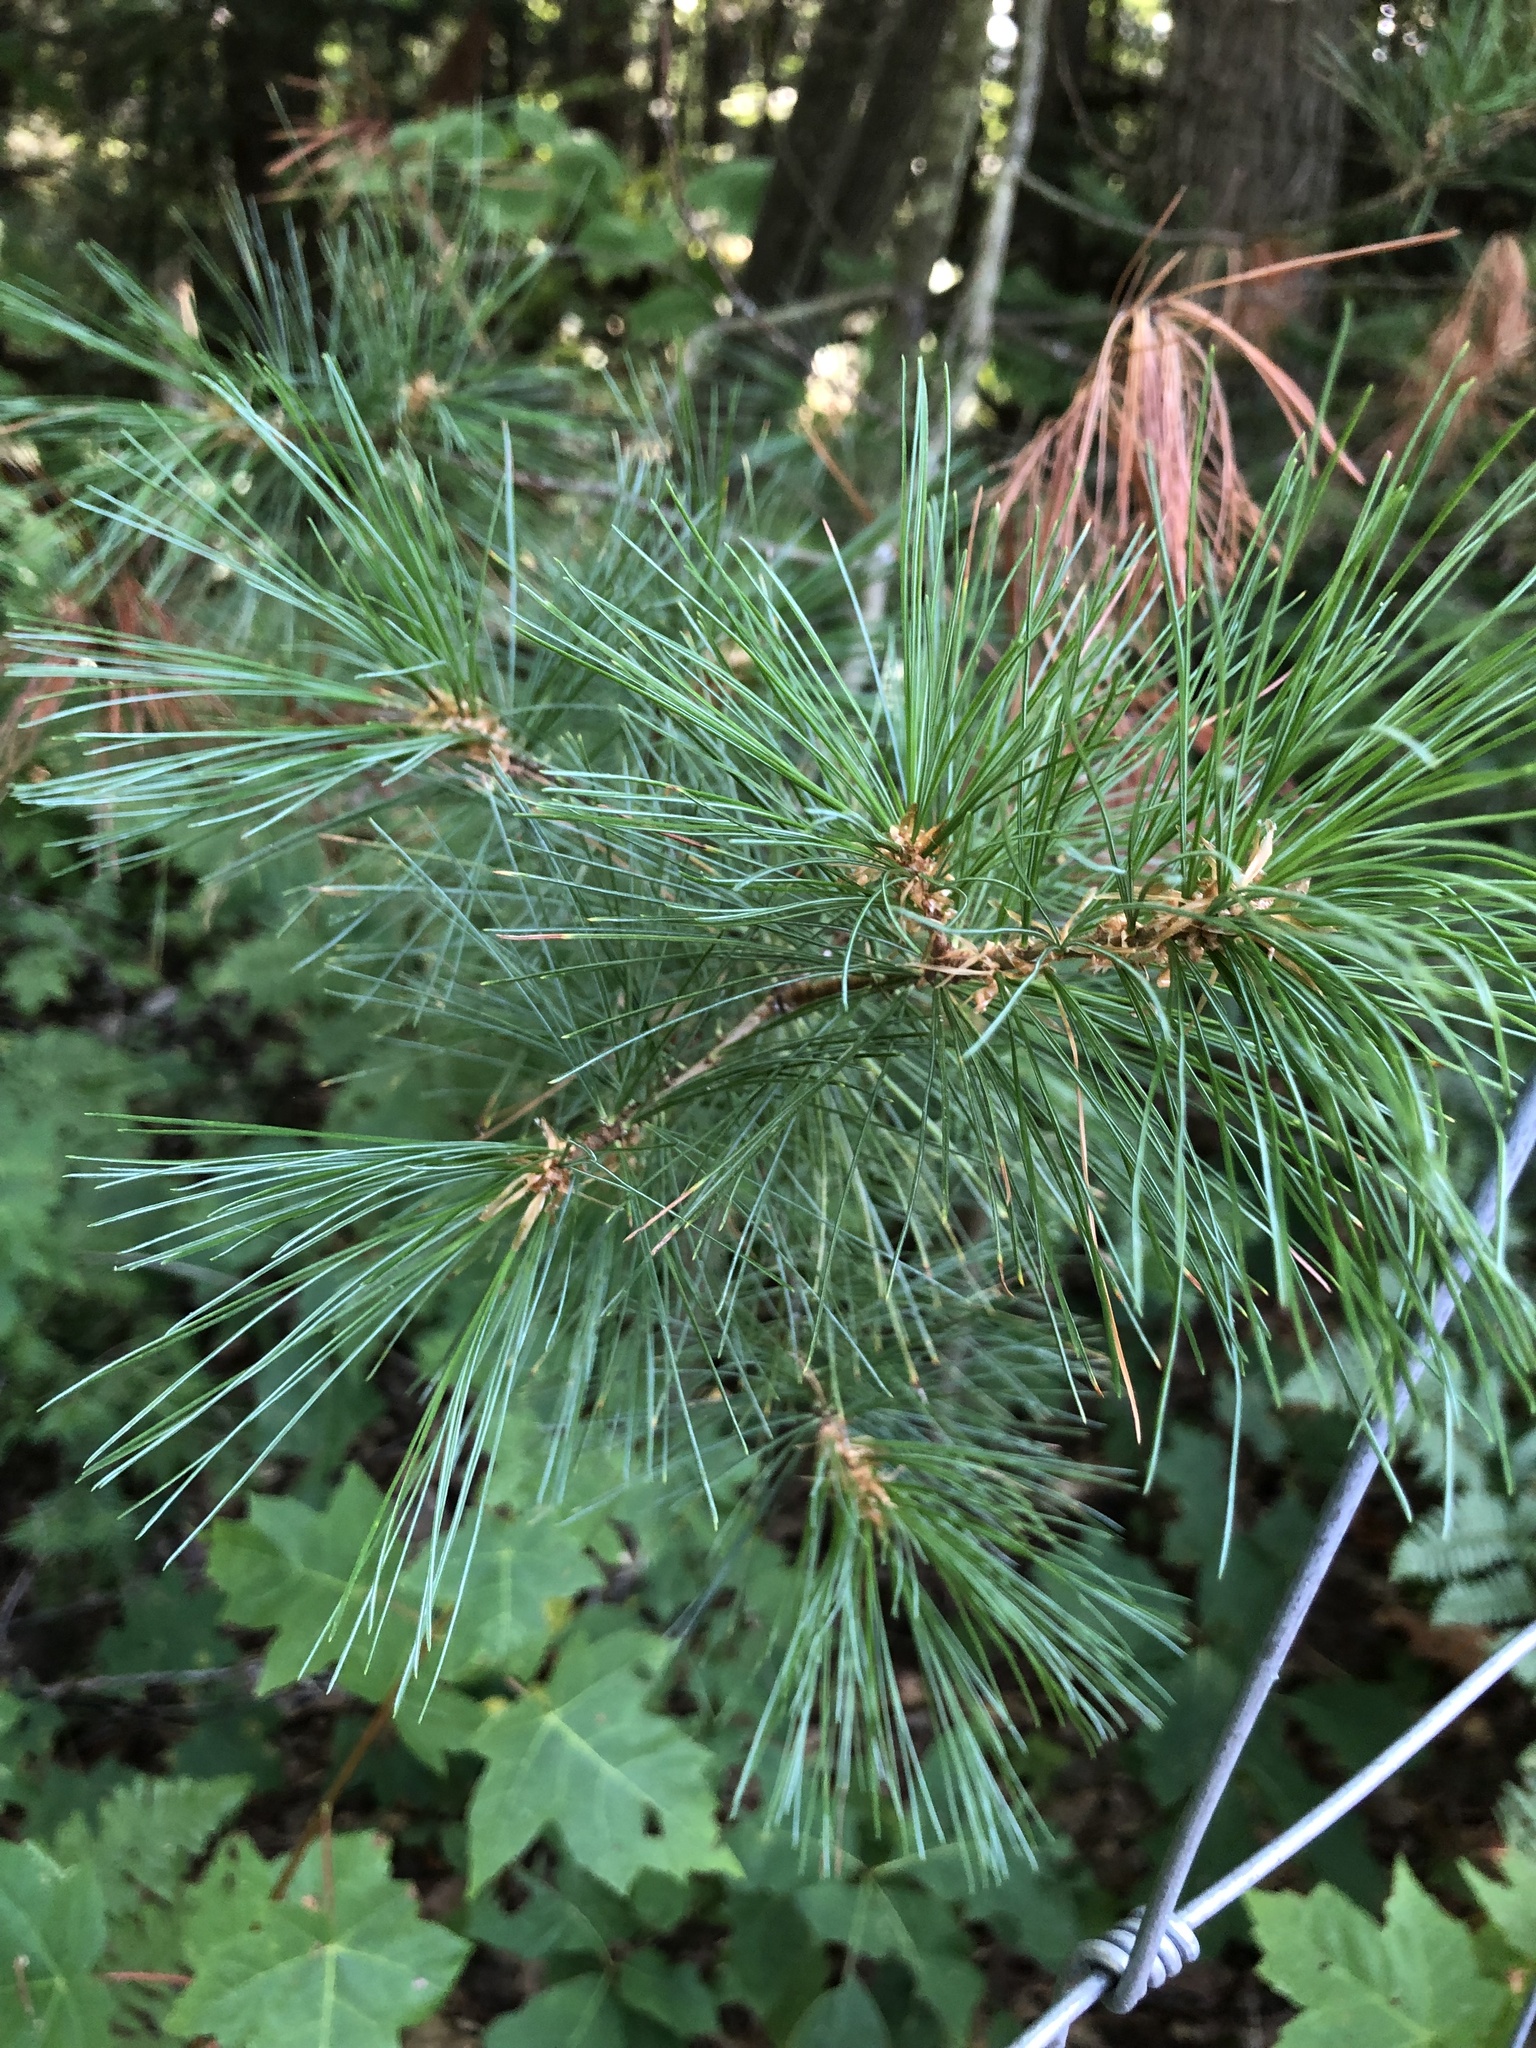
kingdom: Plantae
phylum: Tracheophyta
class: Pinopsida
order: Pinales
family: Pinaceae
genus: Pinus
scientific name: Pinus strobus
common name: Weymouth pine
